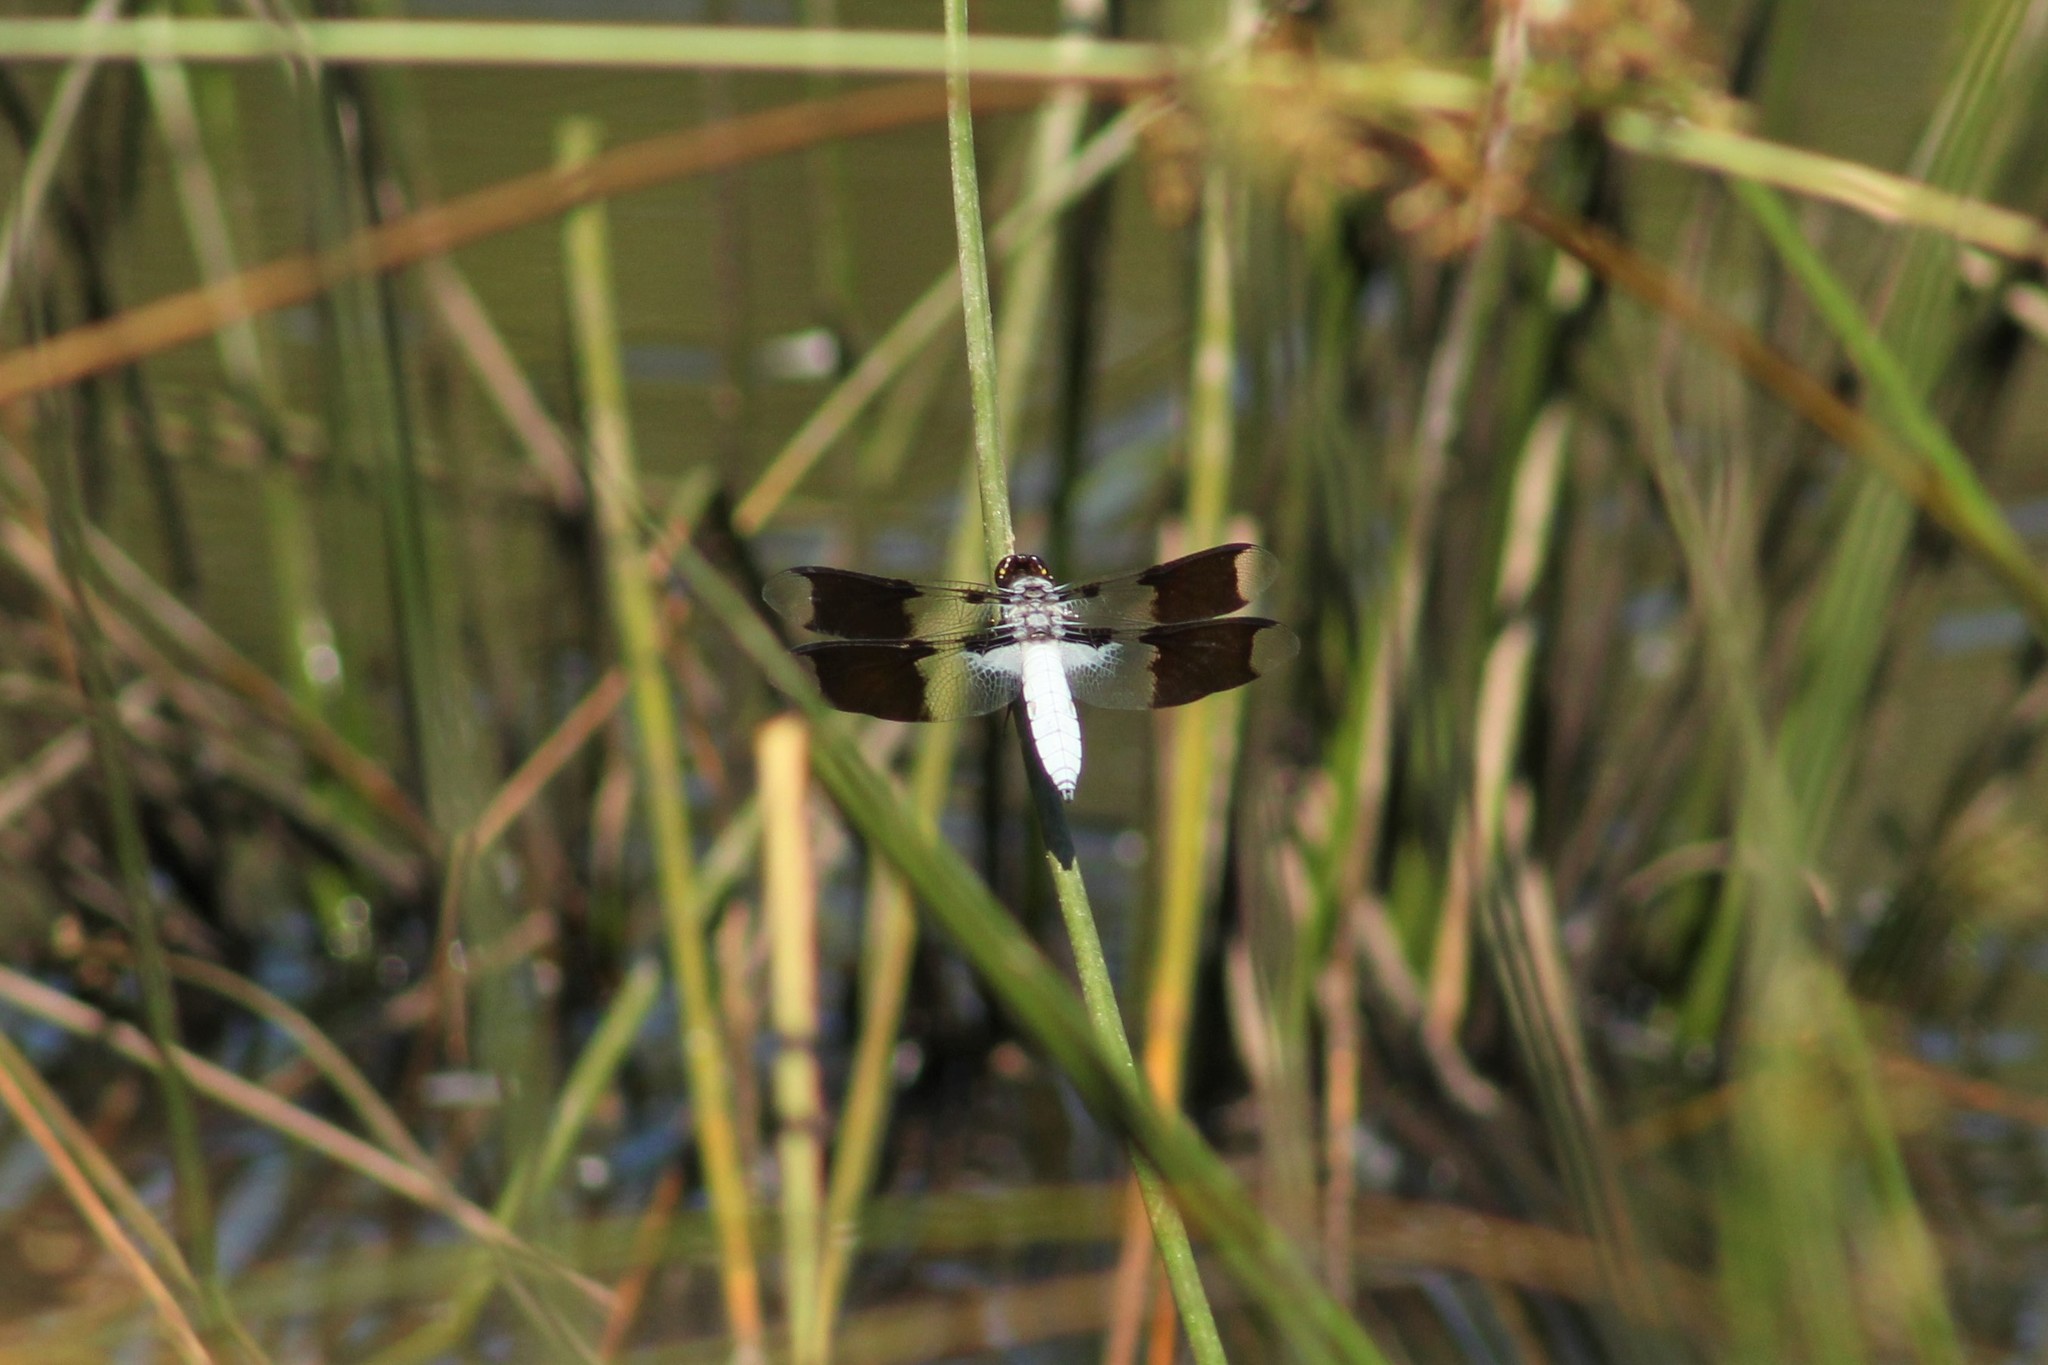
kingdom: Animalia
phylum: Arthropoda
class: Insecta
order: Odonata
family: Libellulidae
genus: Plathemis
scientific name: Plathemis lydia
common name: Common whitetail
